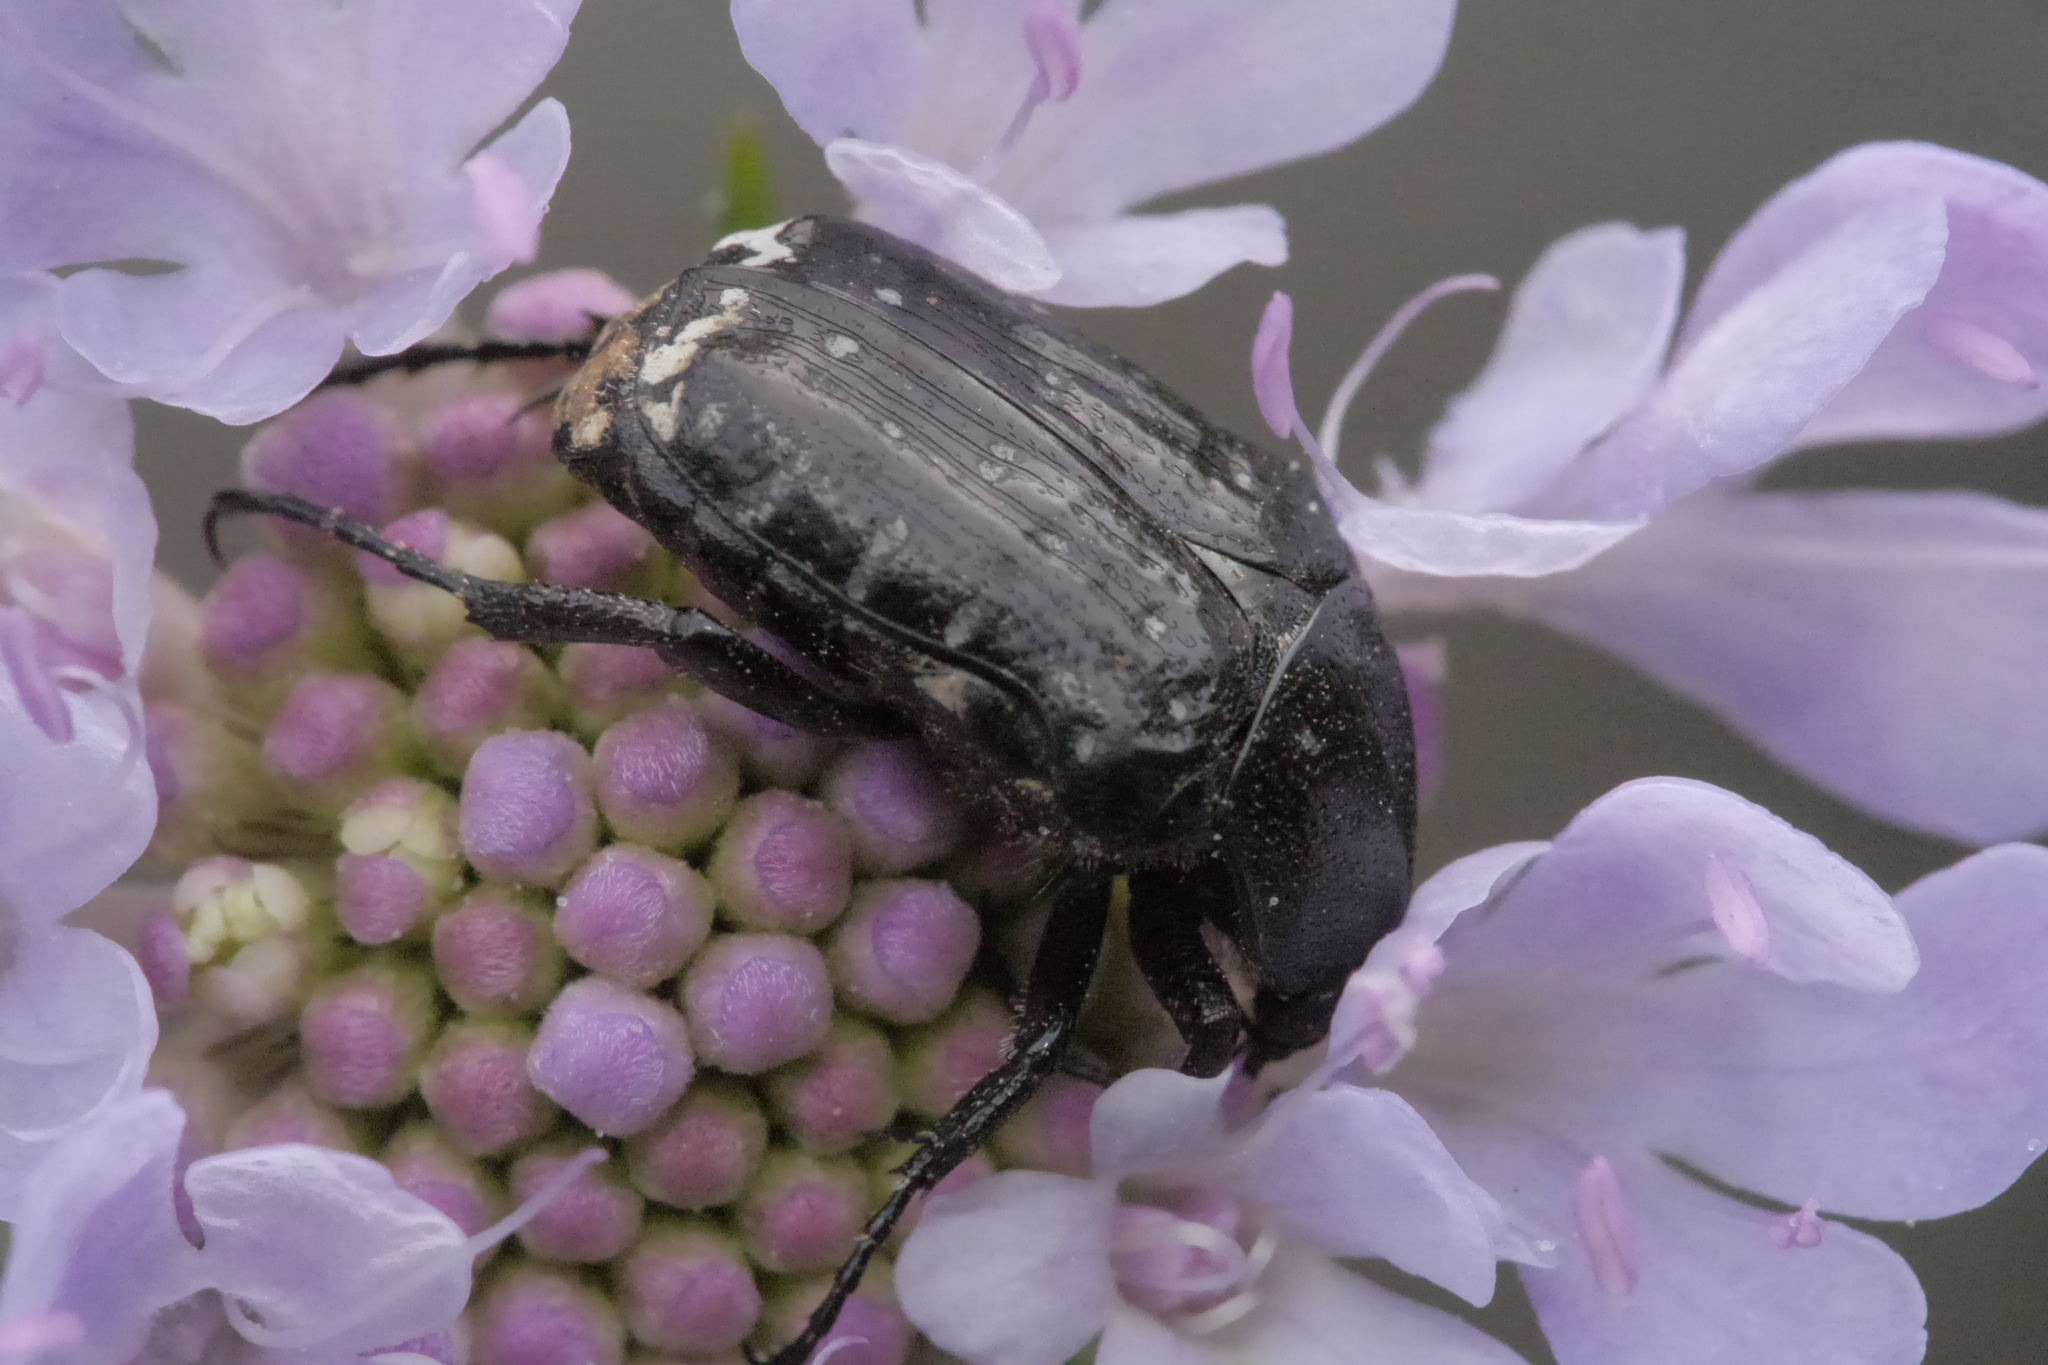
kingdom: Animalia
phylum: Arthropoda
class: Insecta
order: Coleoptera
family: Scarabaeidae
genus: Oxythyrea
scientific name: Oxythyrea funesta
